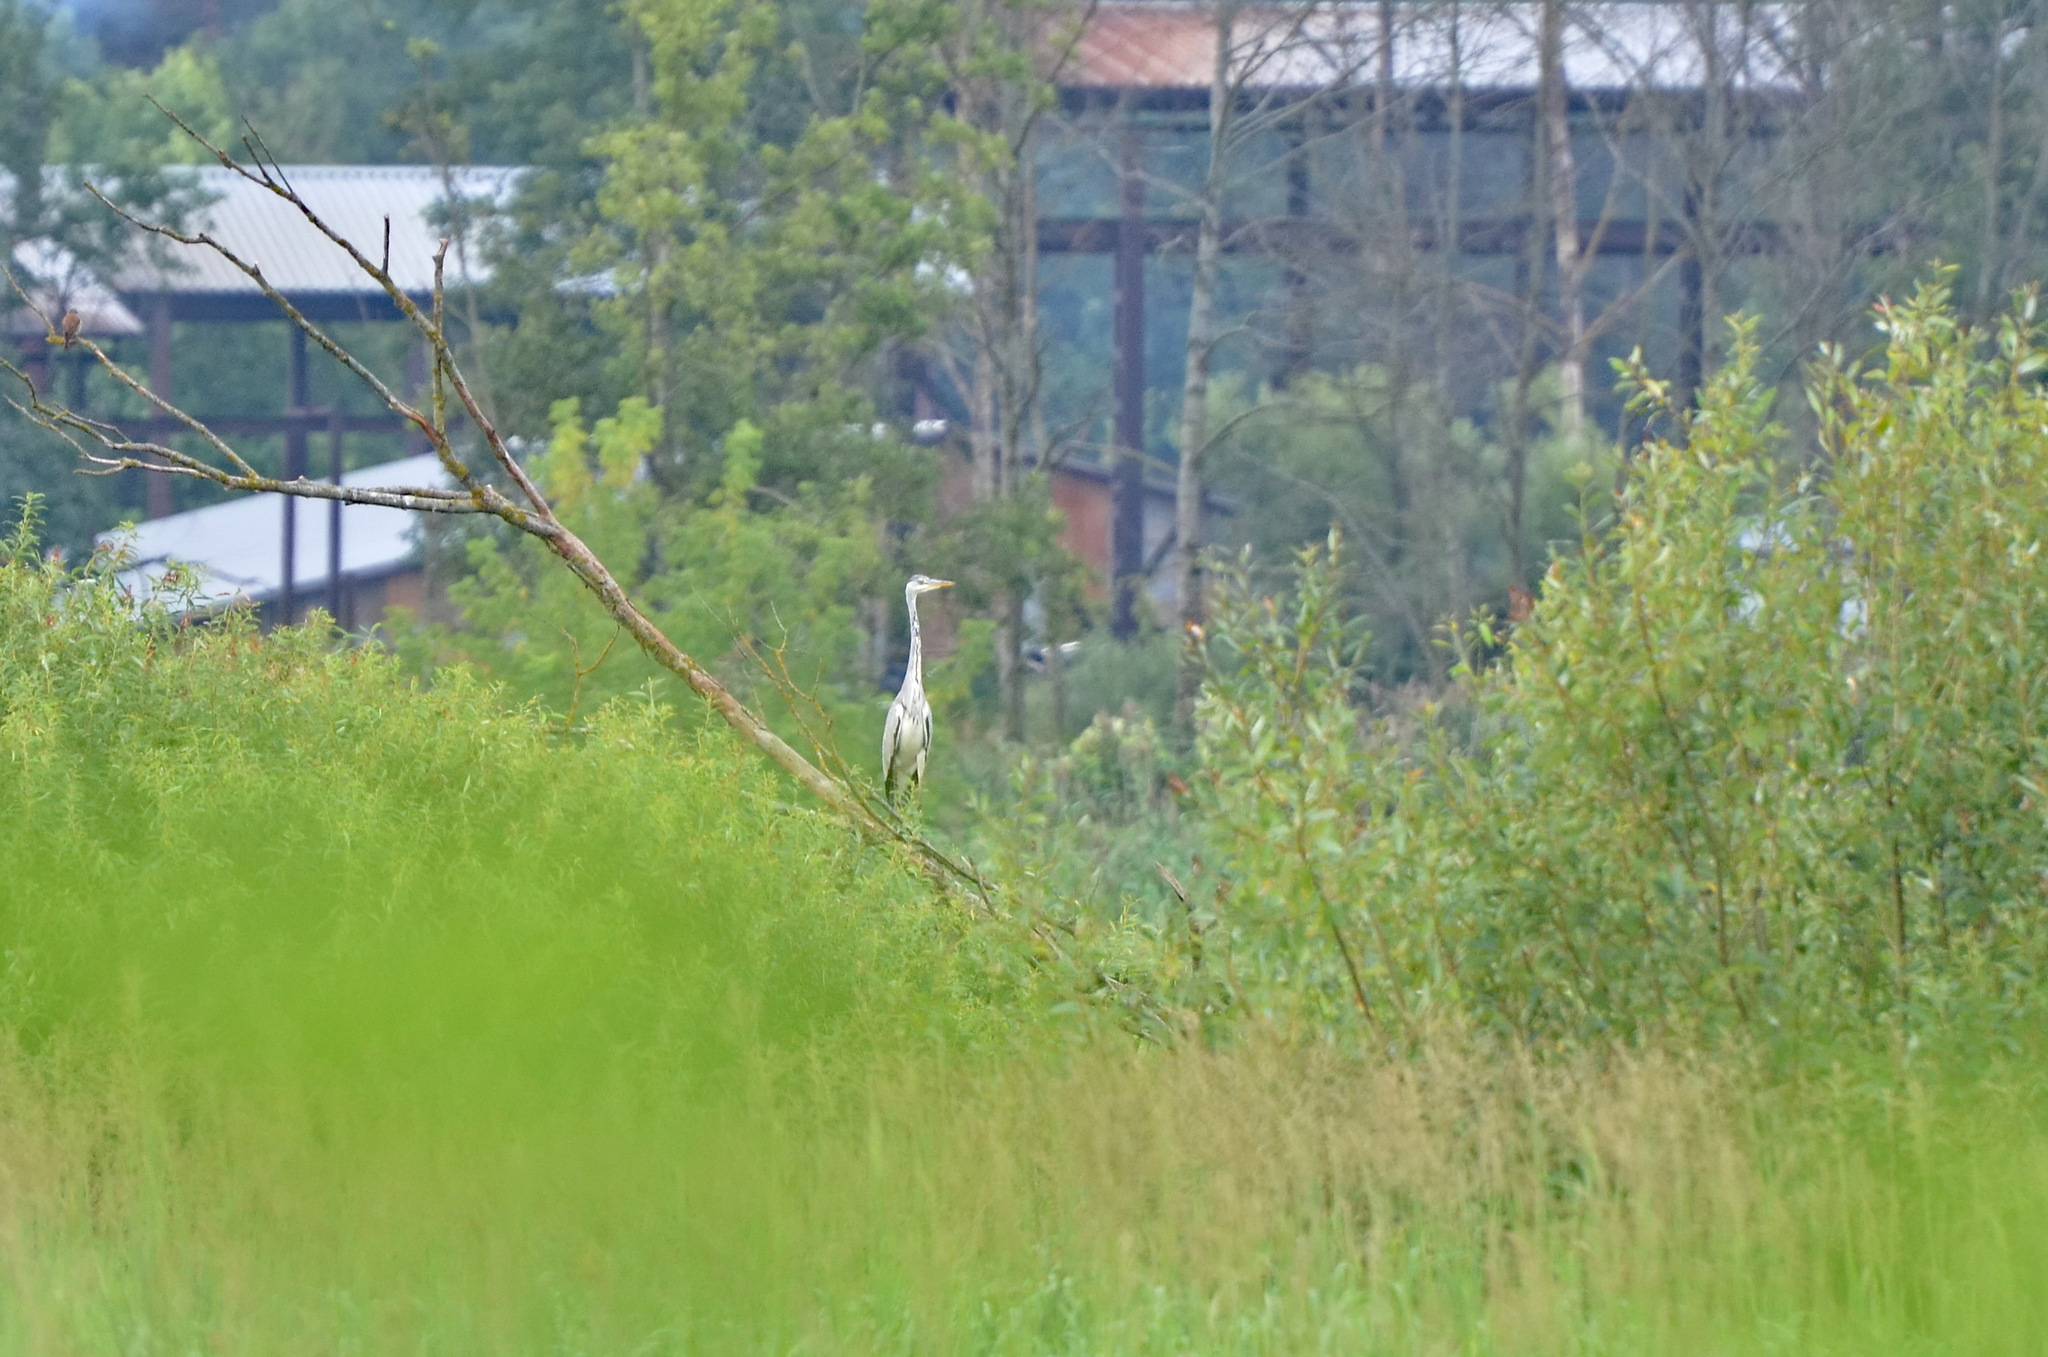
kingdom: Animalia
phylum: Chordata
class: Aves
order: Pelecaniformes
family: Ardeidae
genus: Ardea
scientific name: Ardea cinerea
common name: Grey heron
